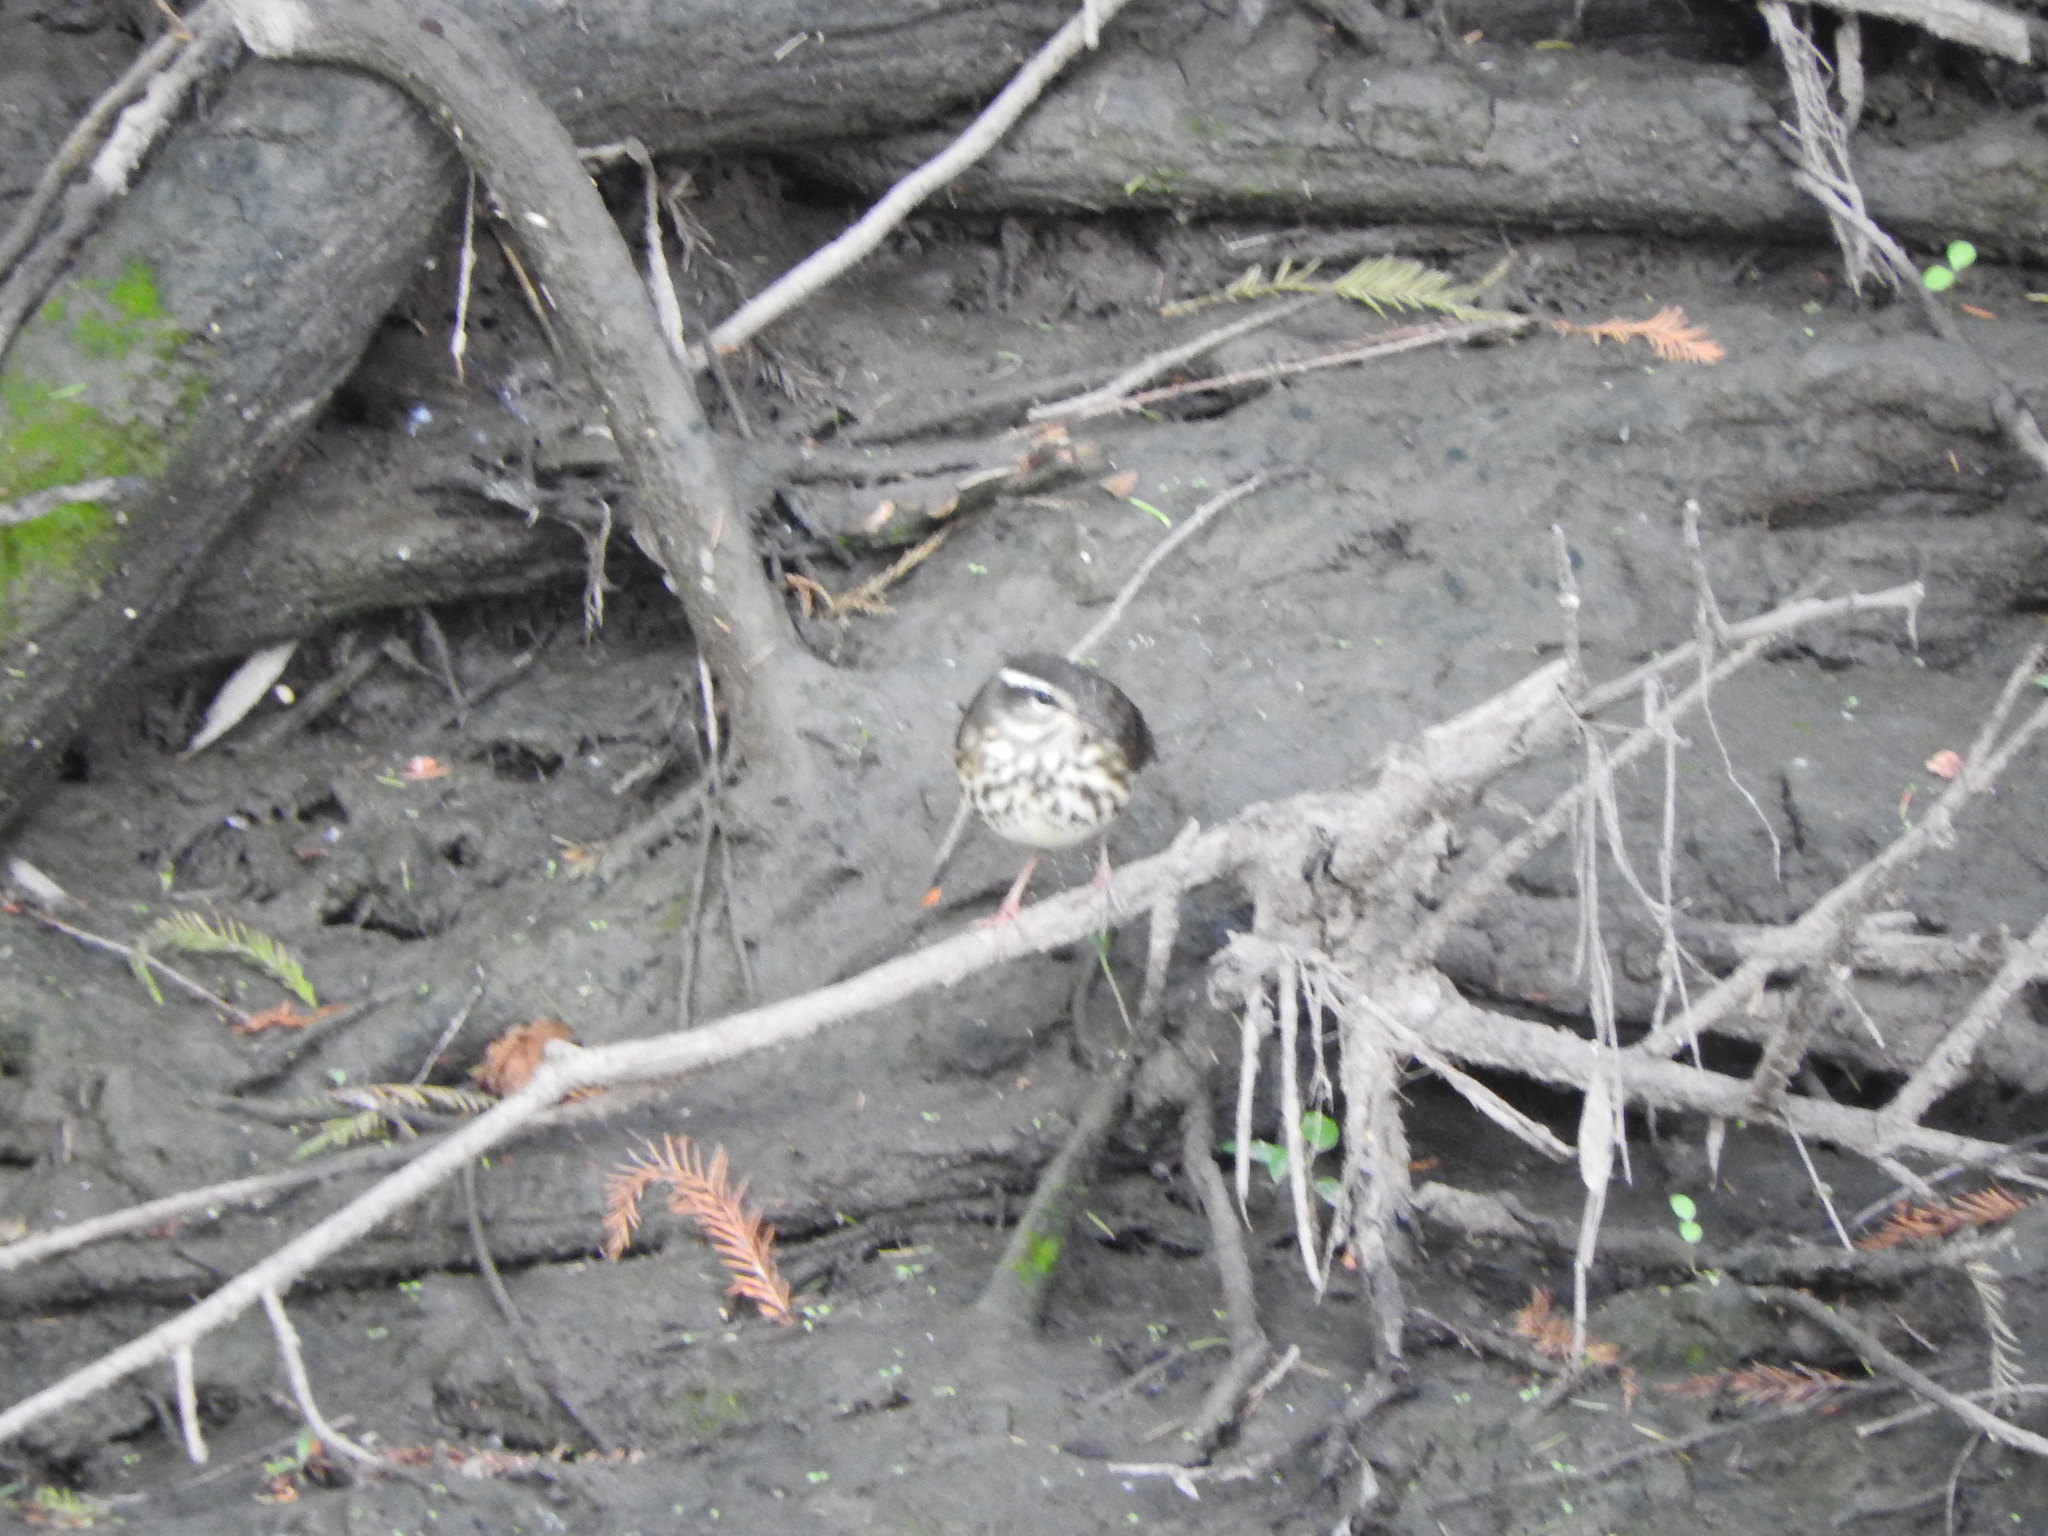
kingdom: Animalia
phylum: Chordata
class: Aves
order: Passeriformes
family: Parulidae
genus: Parkesia
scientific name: Parkesia motacilla
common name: Louisiana waterthrush
